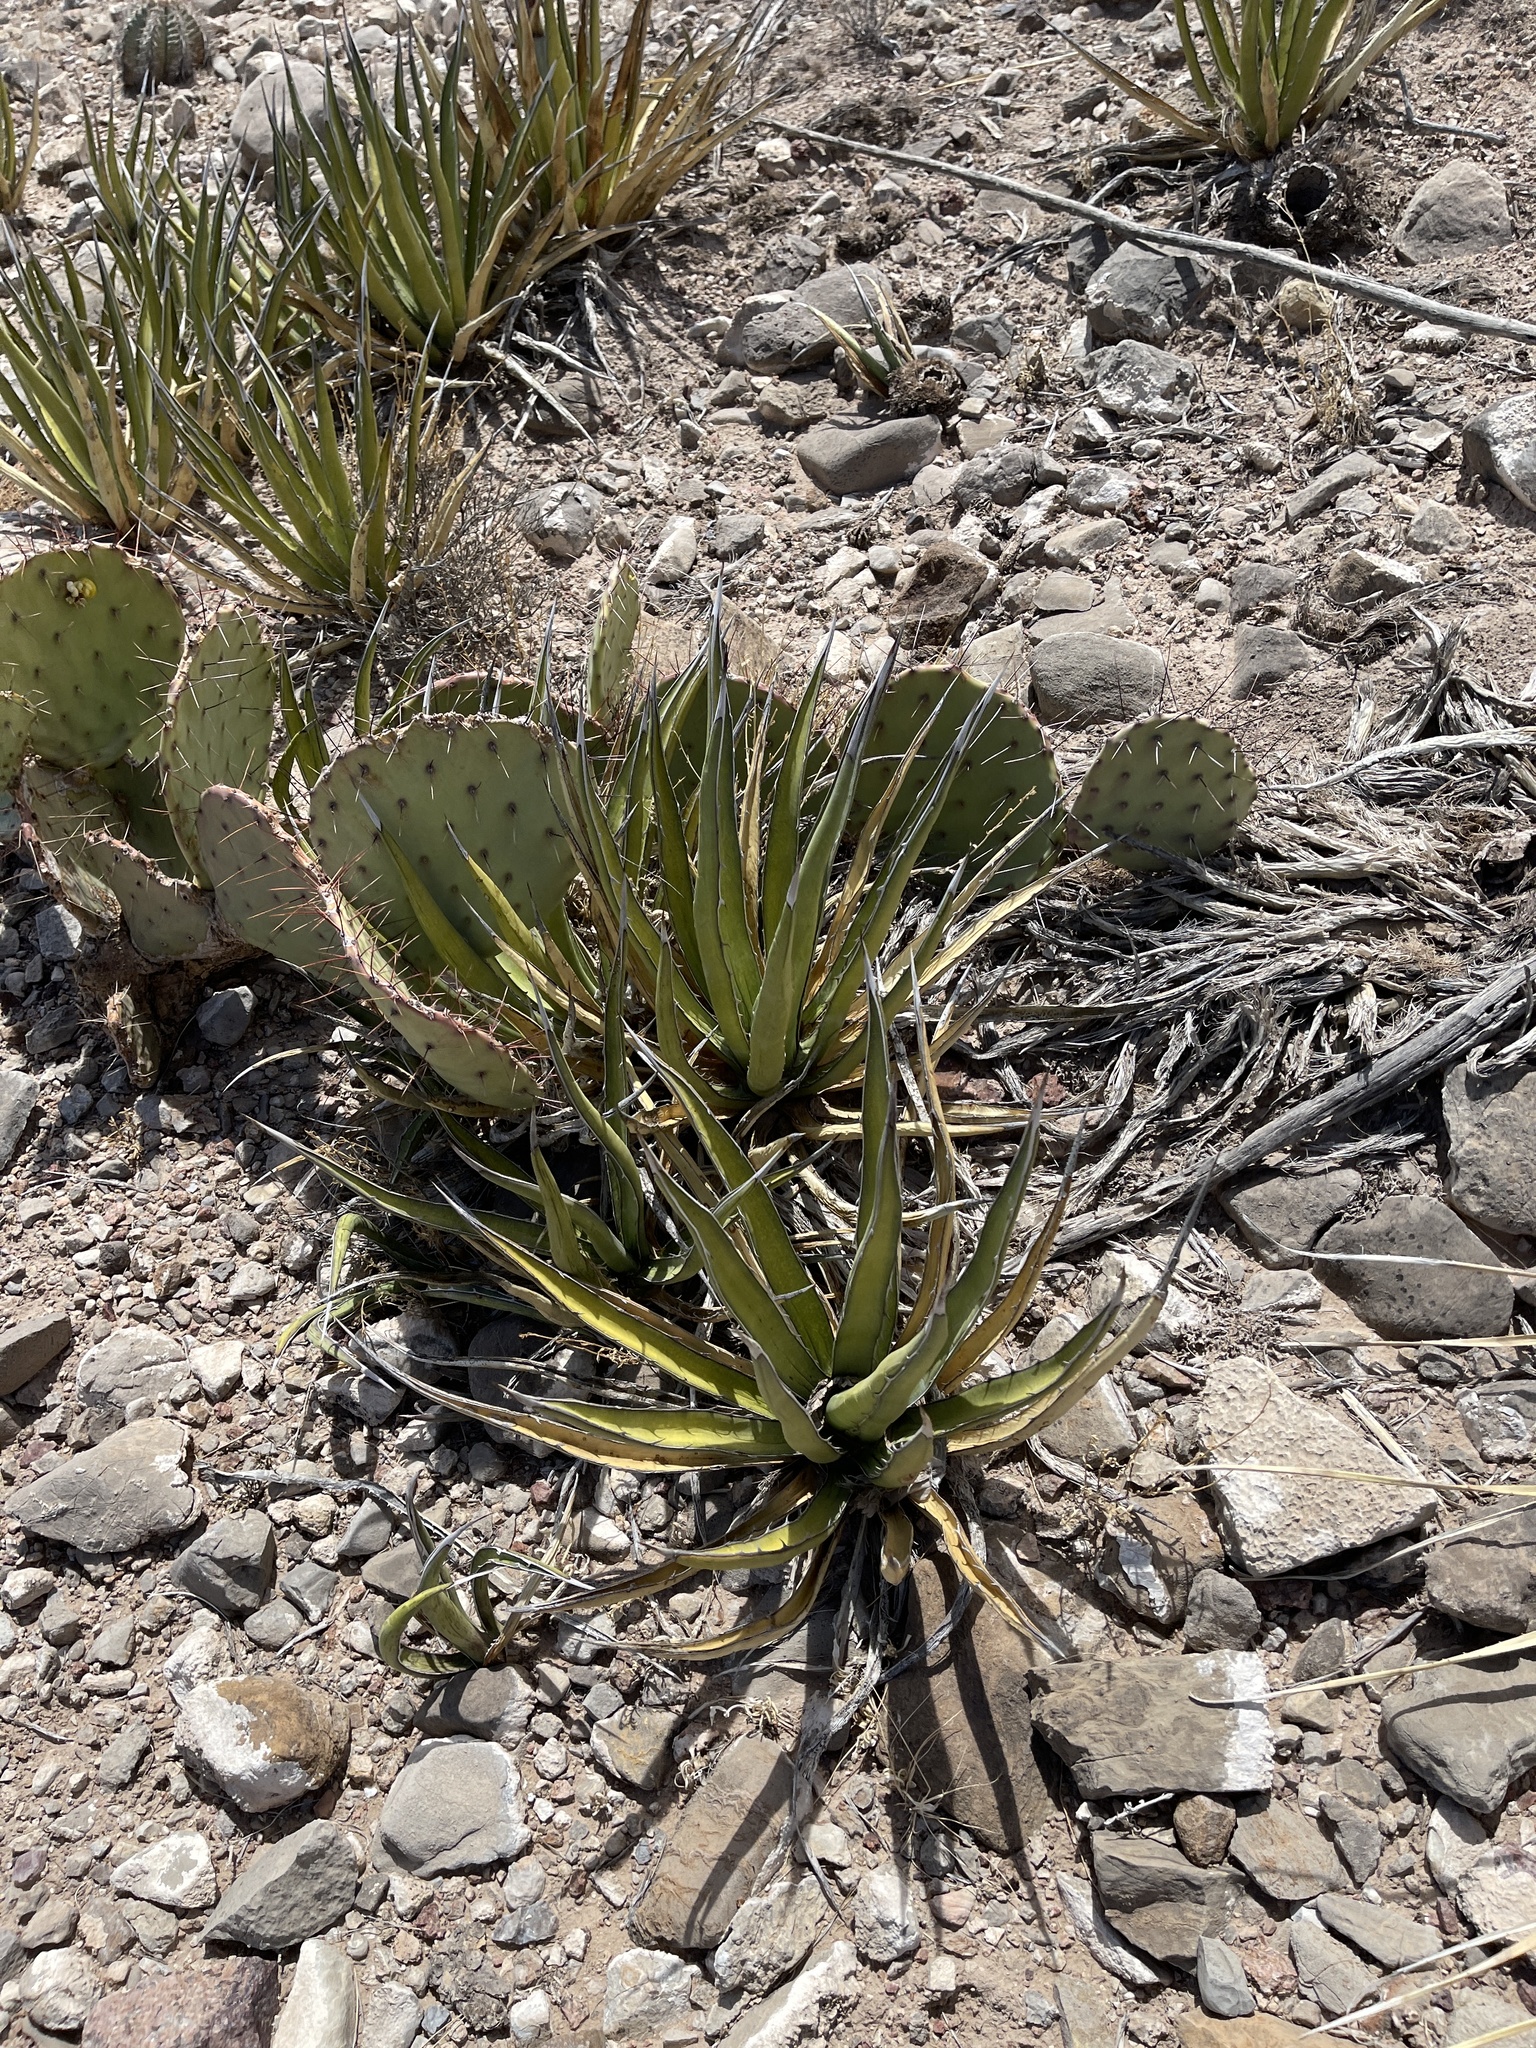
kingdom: Plantae
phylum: Tracheophyta
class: Liliopsida
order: Asparagales
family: Asparagaceae
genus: Agave
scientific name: Agave lechuguilla
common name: Lecheguilla agave
